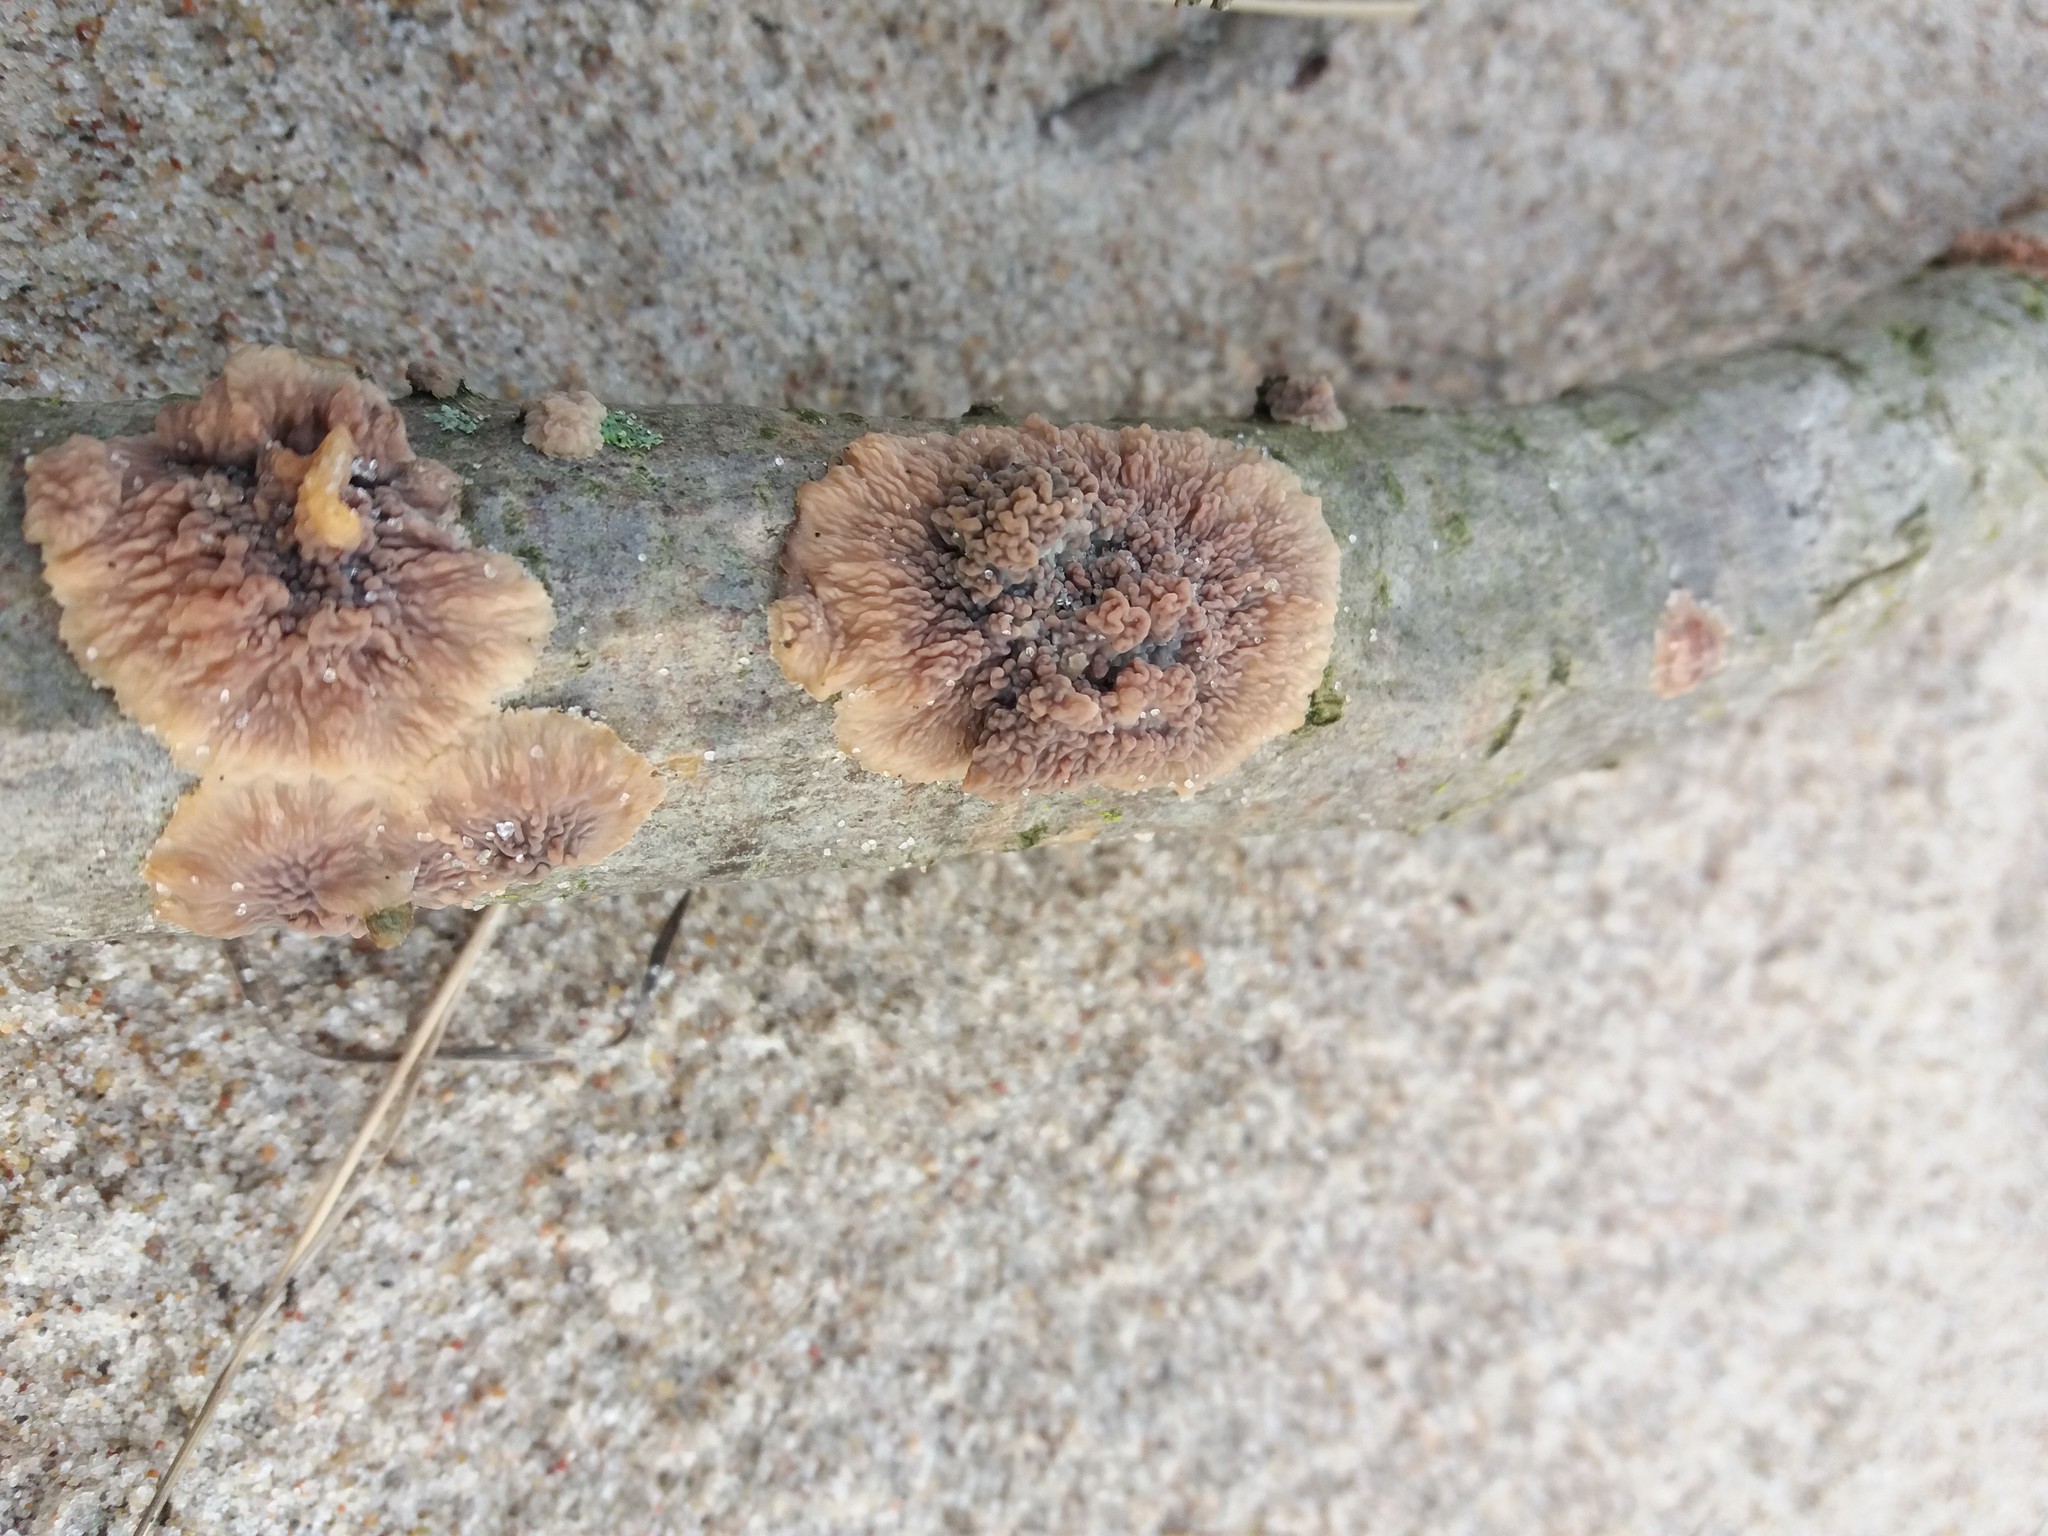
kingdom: Fungi
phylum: Basidiomycota
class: Agaricomycetes
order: Polyporales
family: Meruliaceae
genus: Phlebia
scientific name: Phlebia radiata
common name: Wrinkled crust
